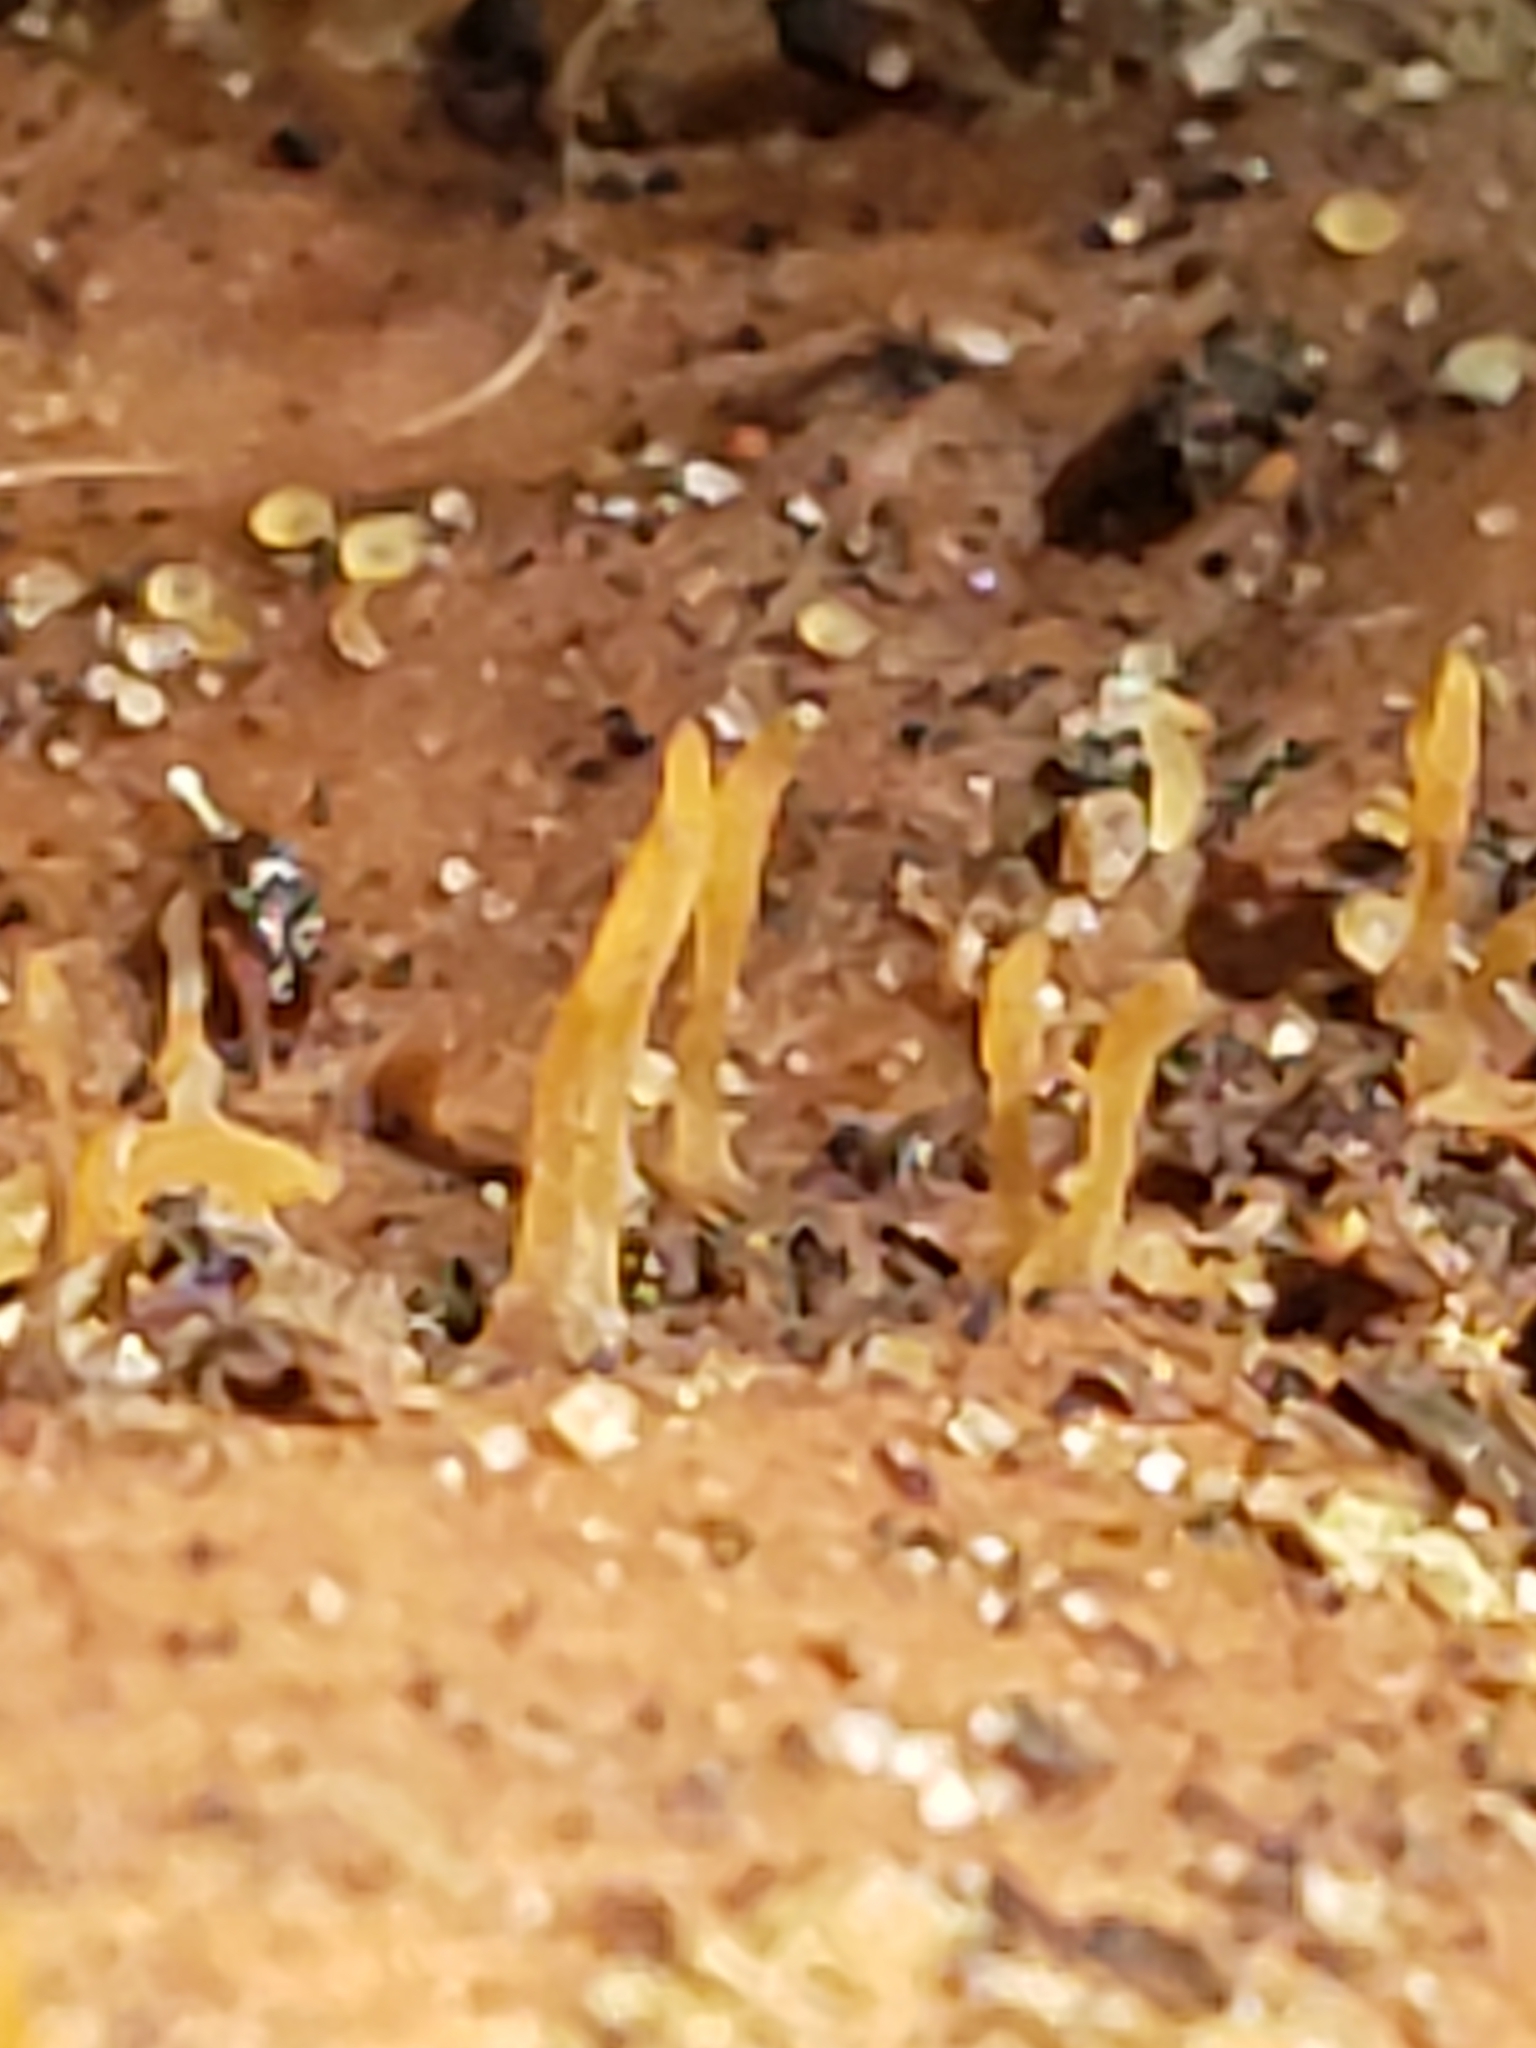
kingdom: Fungi
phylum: Basidiomycota
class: Dacrymycetes
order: Dacrymycetales
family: Dacrymycetaceae
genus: Calocera
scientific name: Calocera cornea
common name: Small stagshorn
